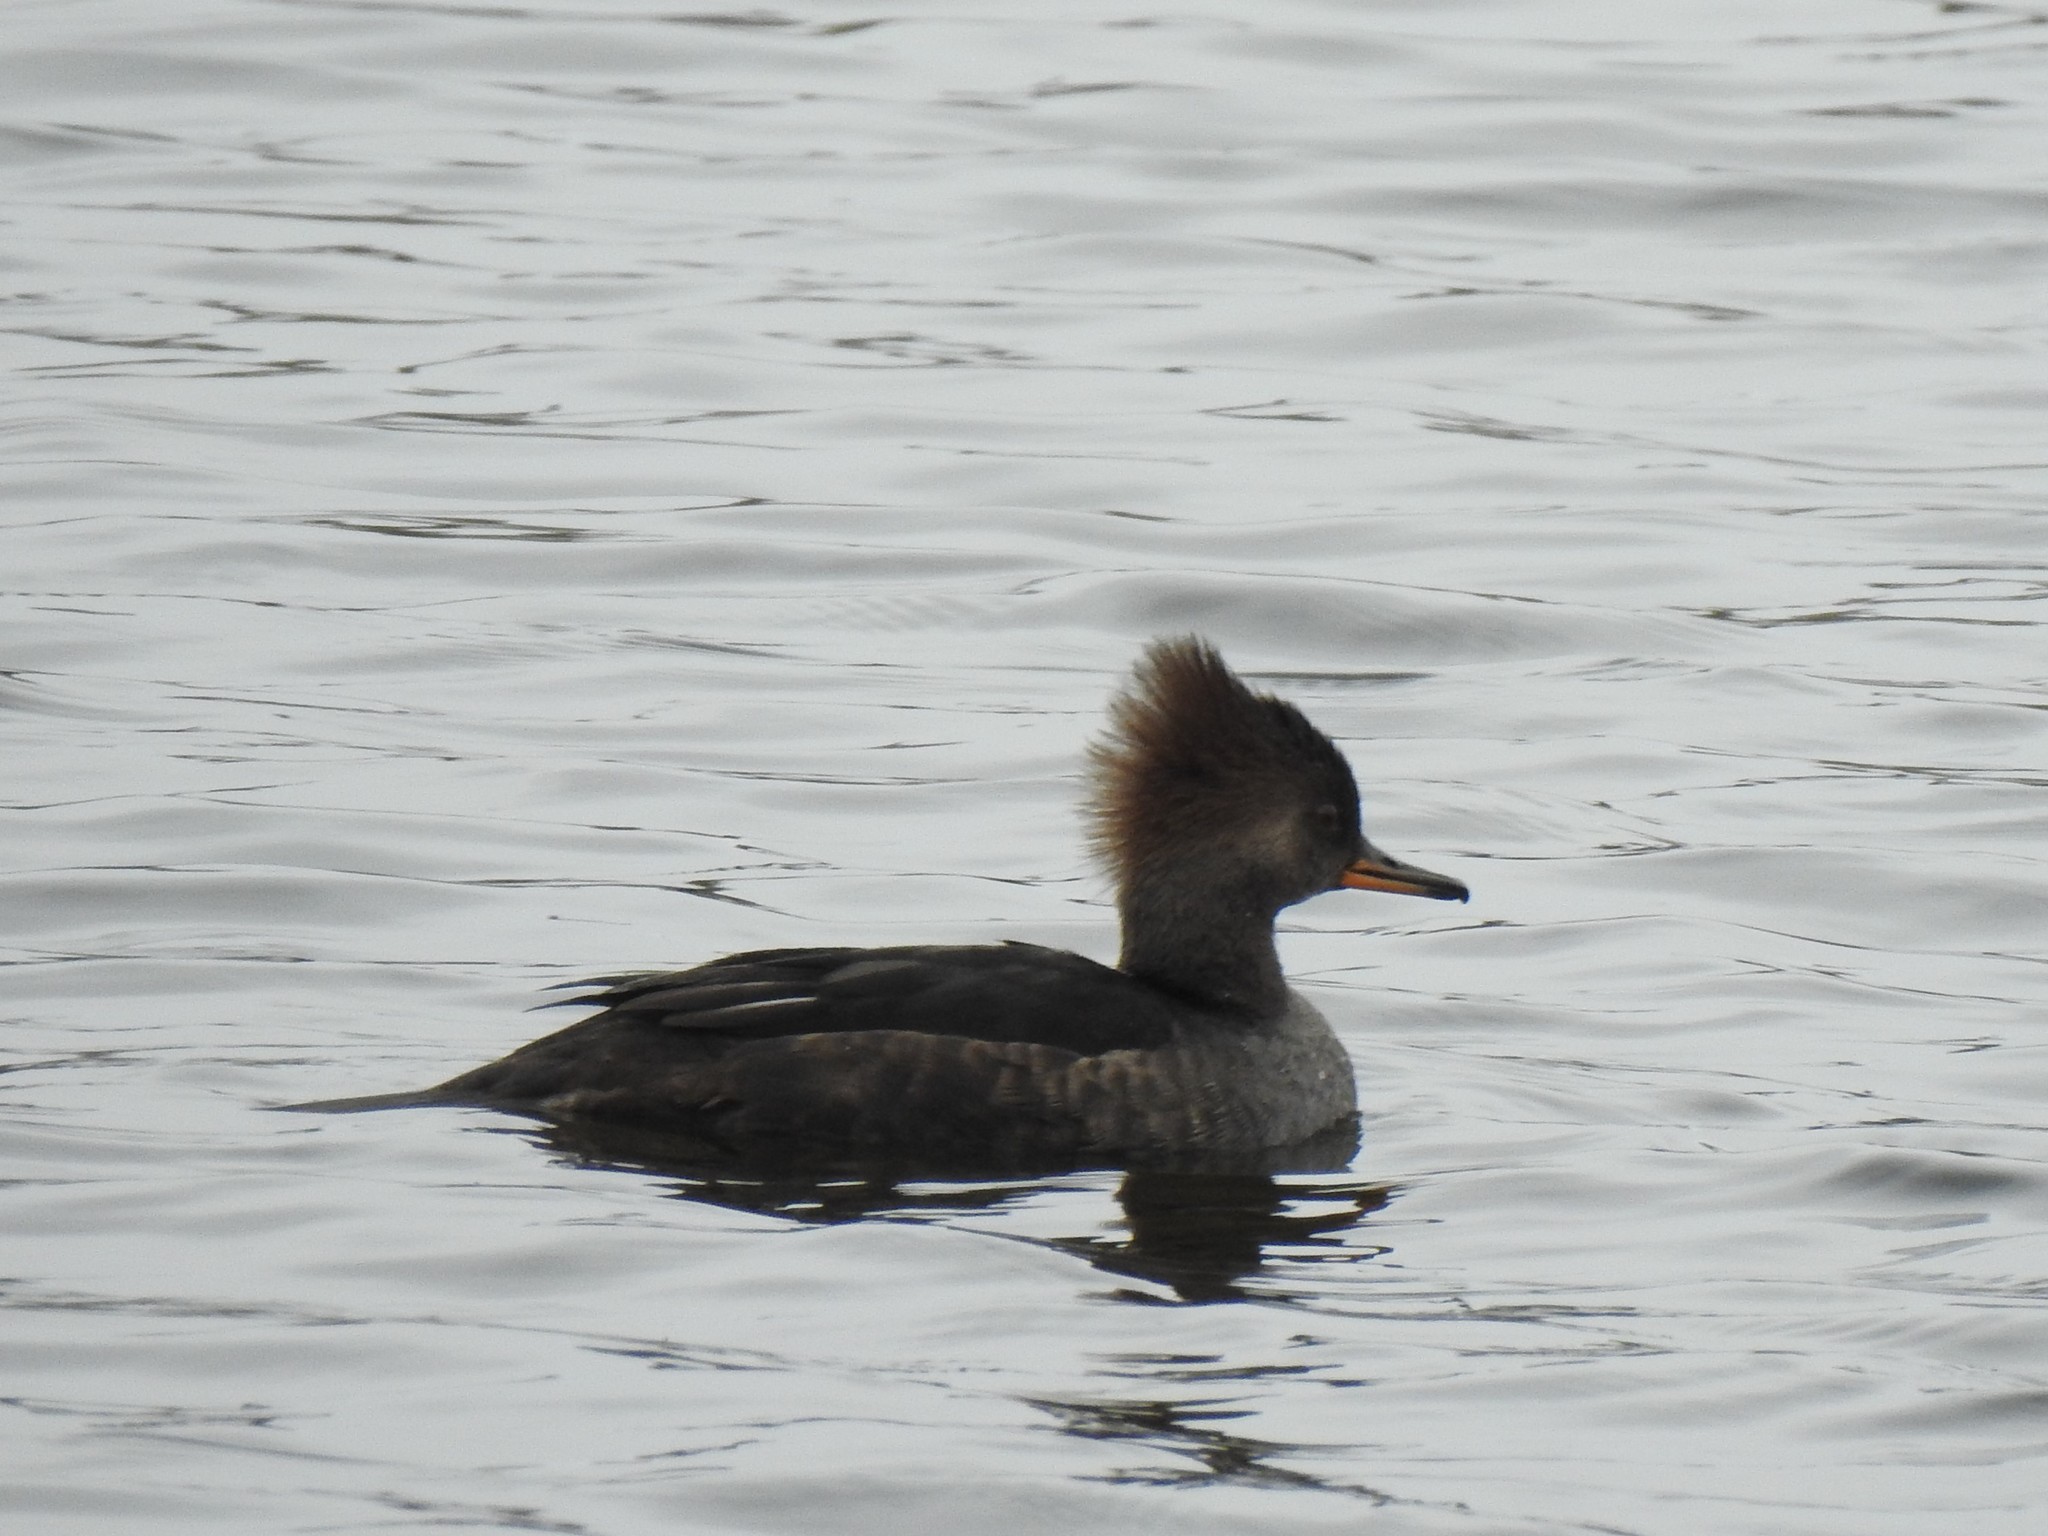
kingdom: Animalia
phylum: Chordata
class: Aves
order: Anseriformes
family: Anatidae
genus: Lophodytes
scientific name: Lophodytes cucullatus
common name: Hooded merganser
